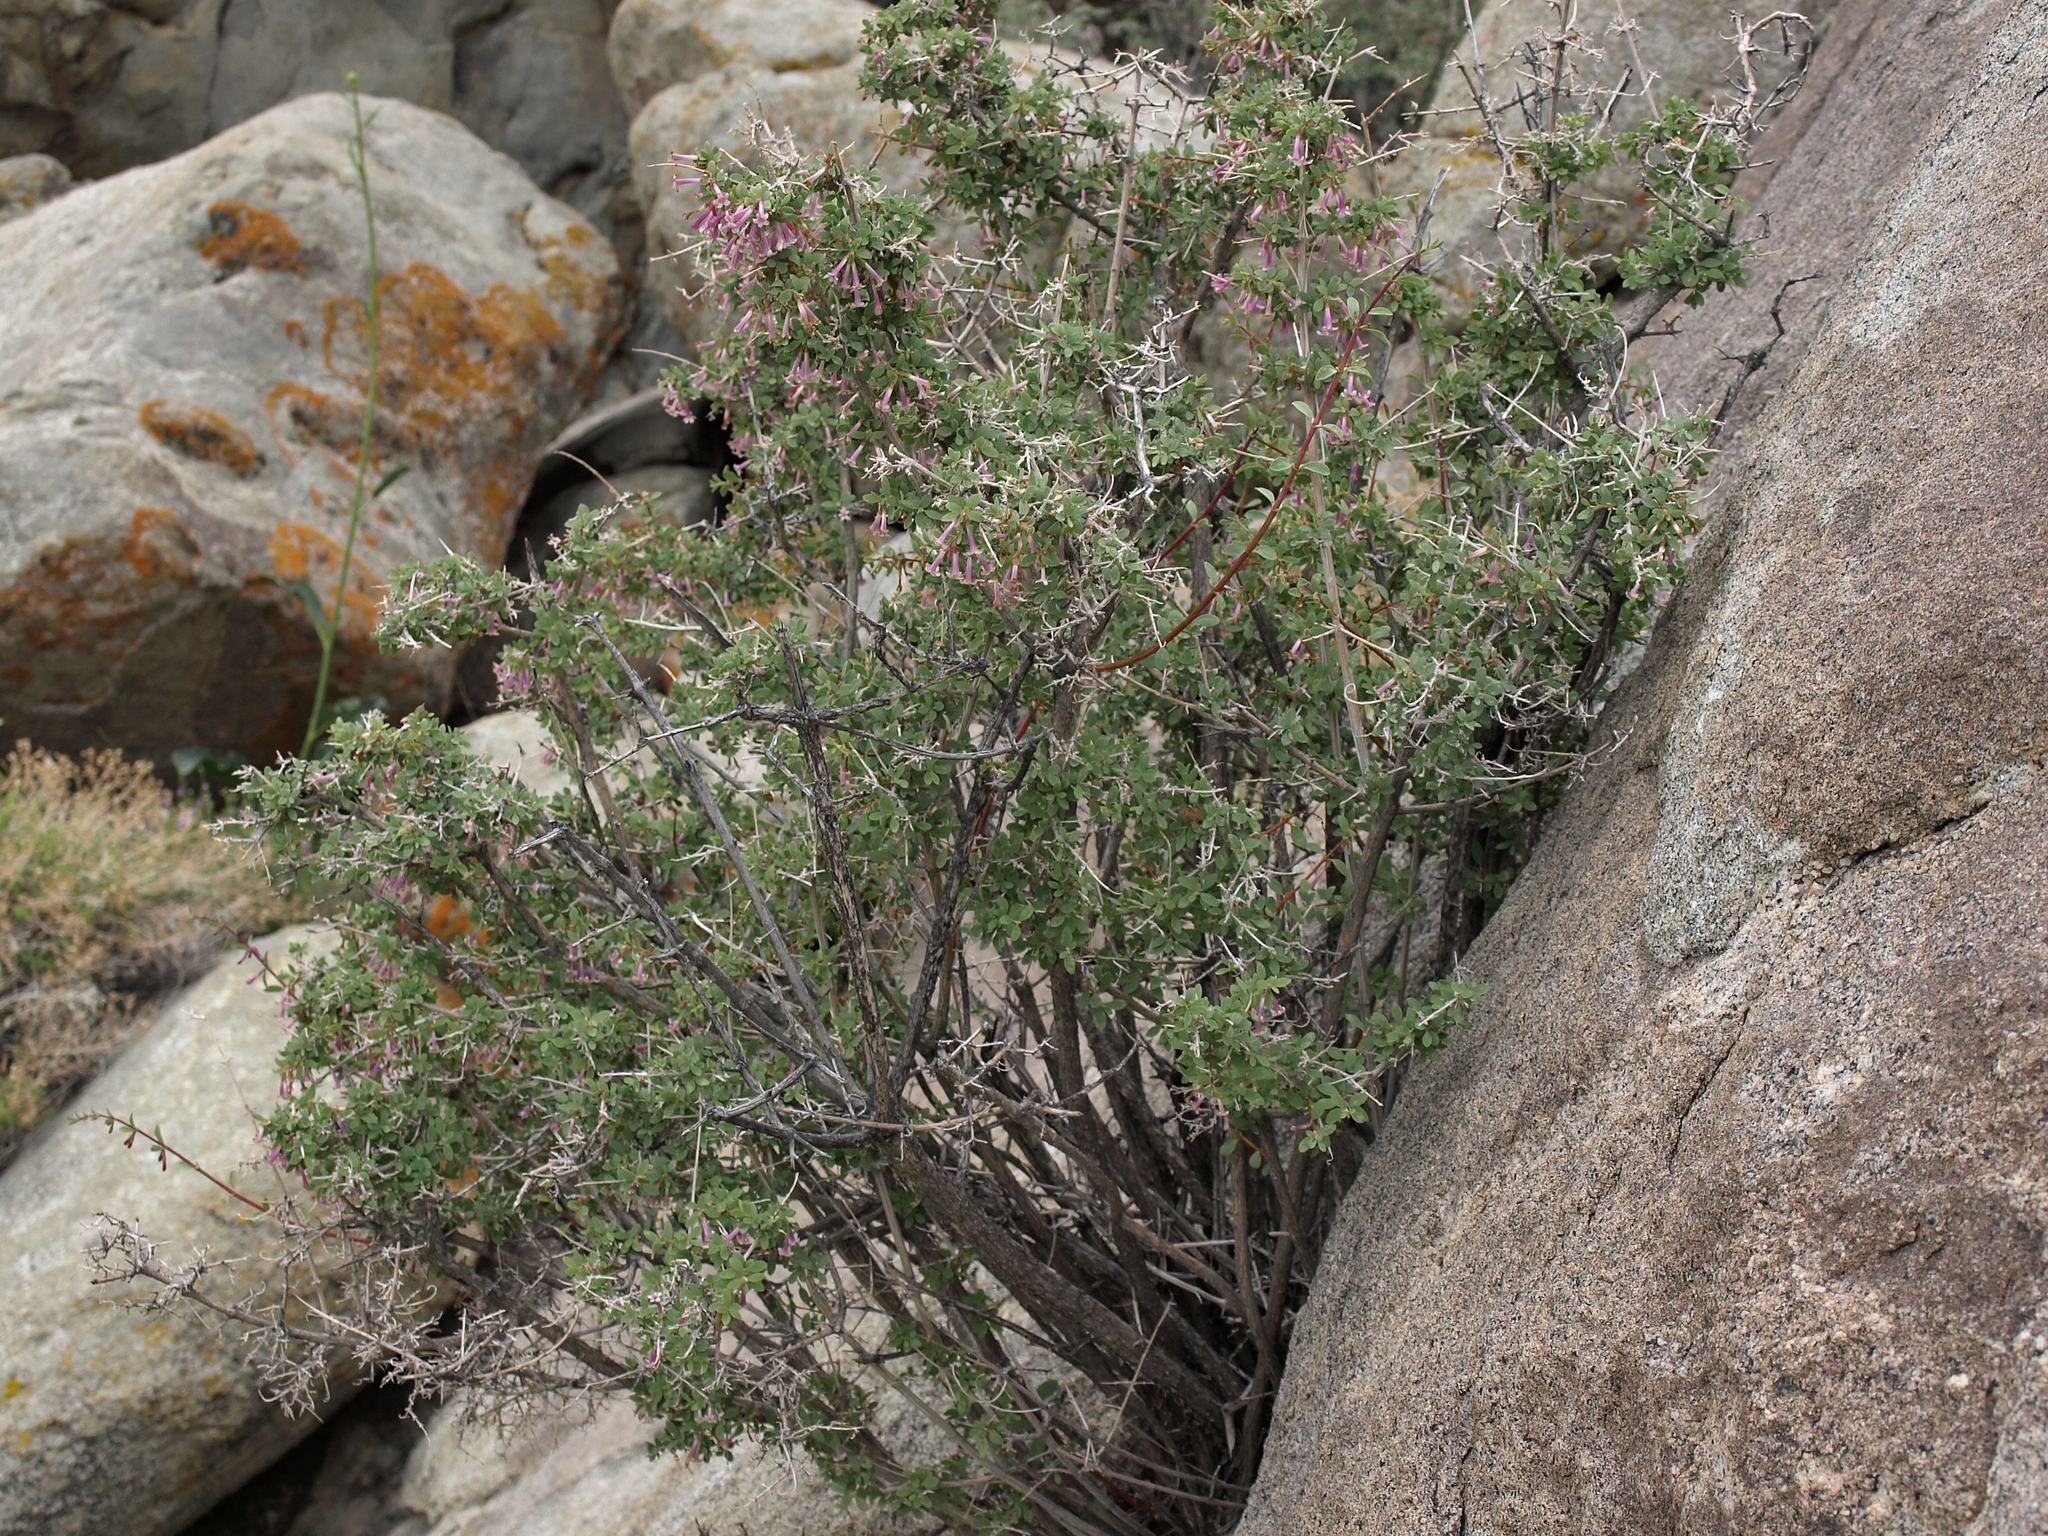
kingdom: Plantae
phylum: Tracheophyta
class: Magnoliopsida
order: Dipsacales
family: Caprifoliaceae
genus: Symphoricarpos
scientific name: Symphoricarpos longiflorus
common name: Fragrant snowberry
